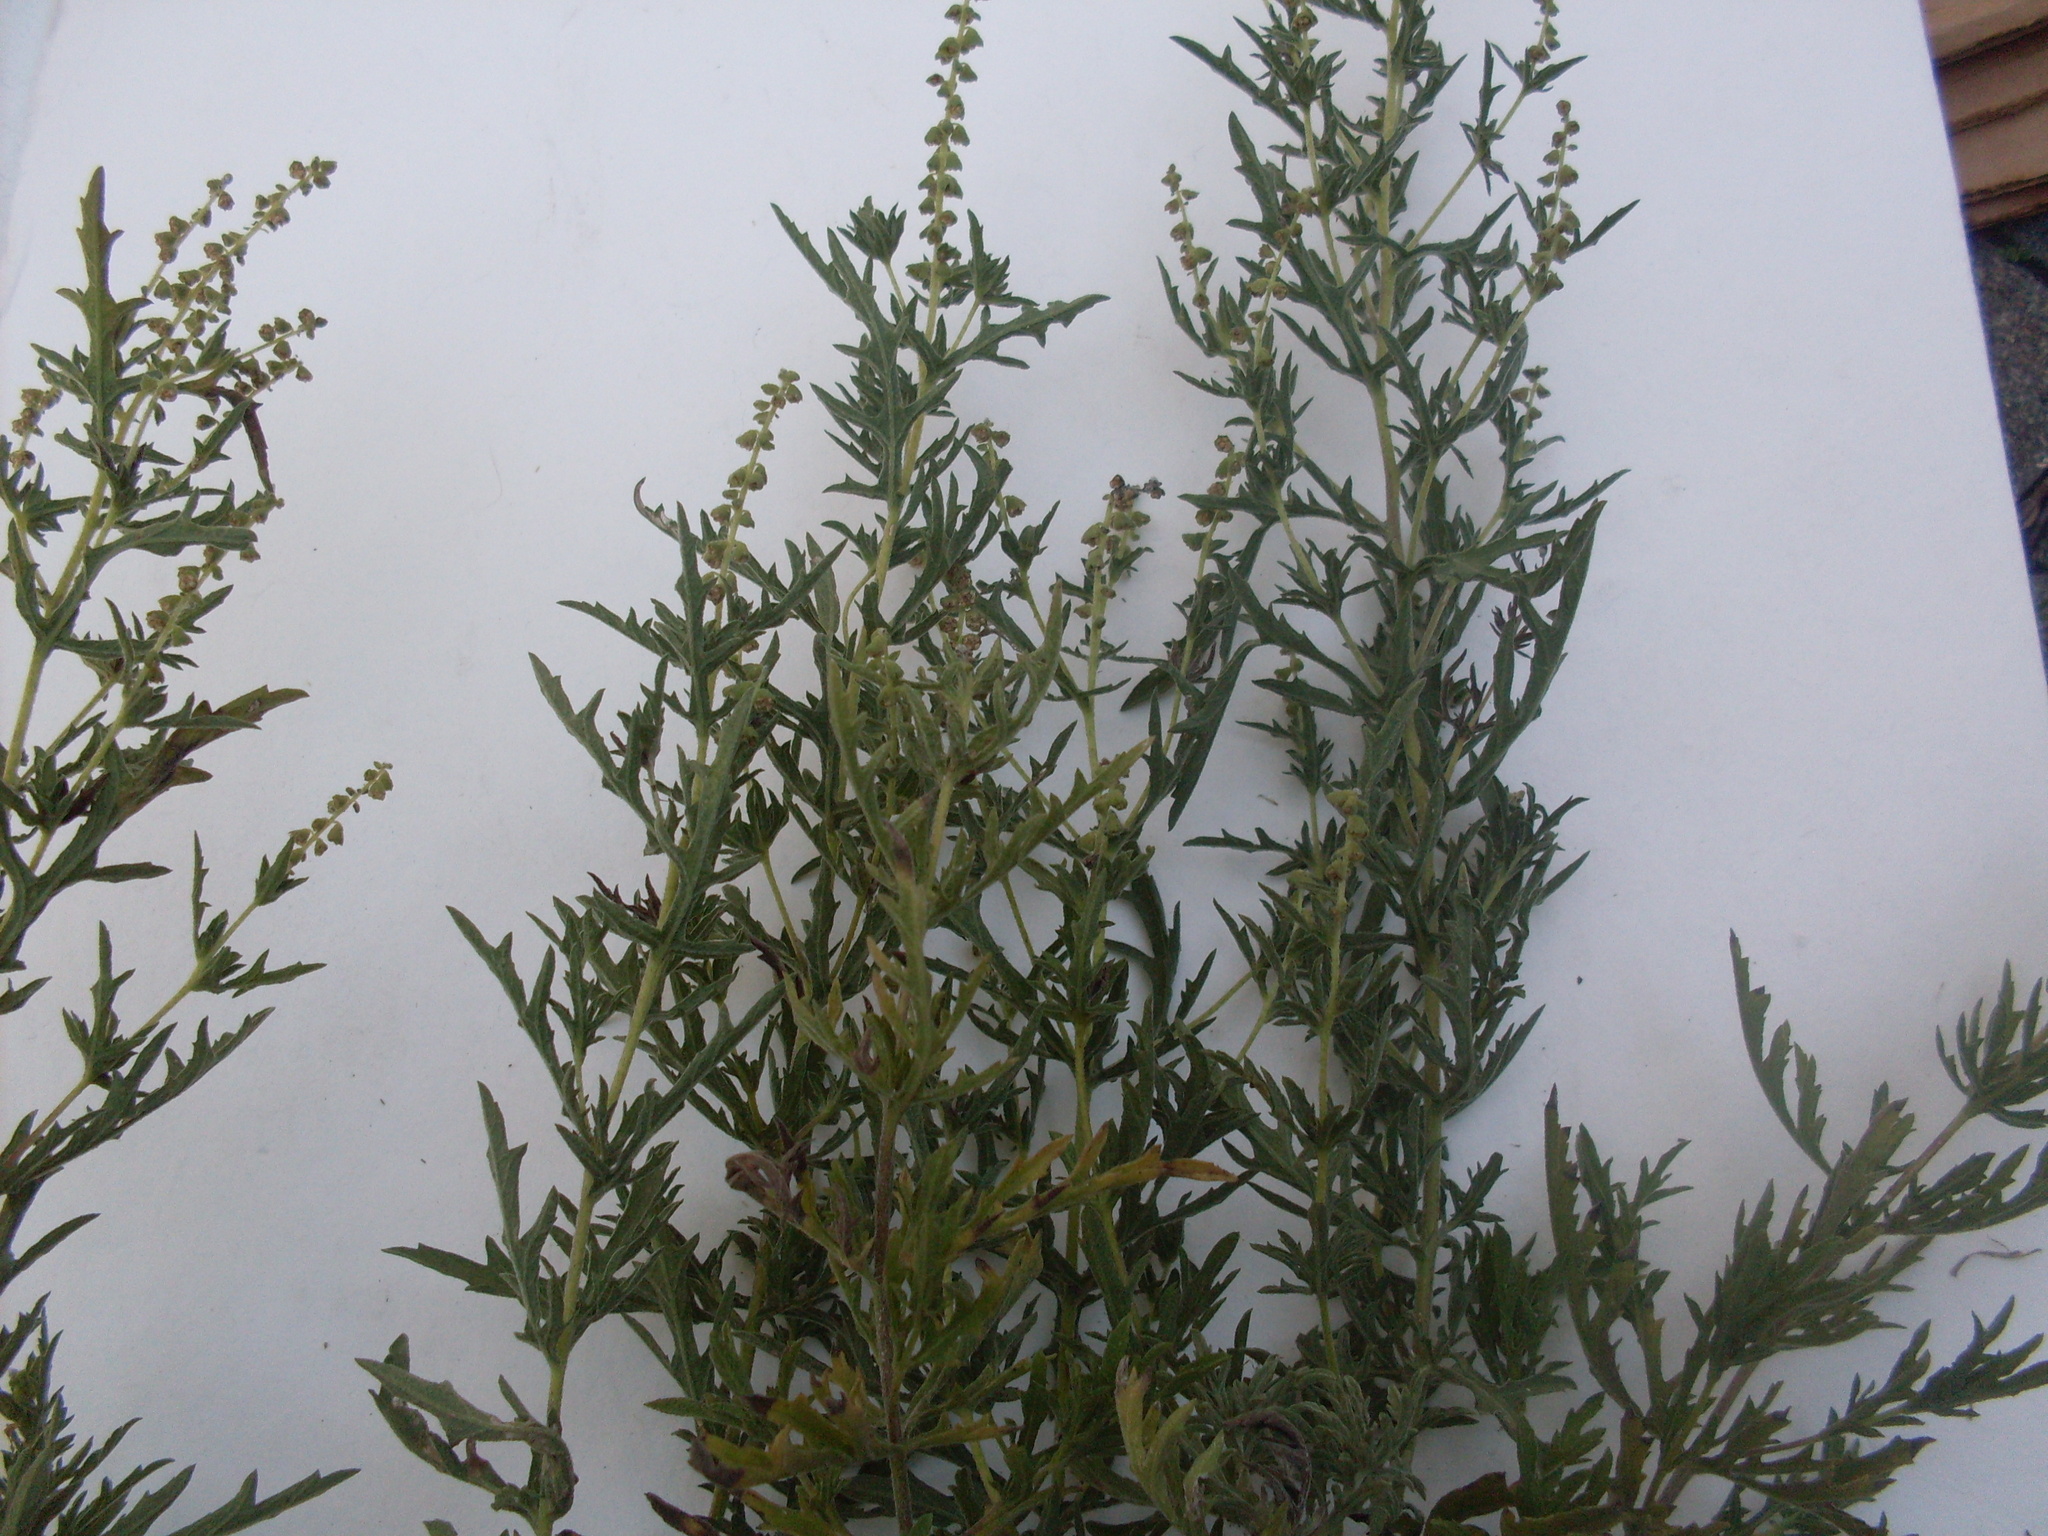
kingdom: Plantae
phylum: Tracheophyta
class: Magnoliopsida
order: Asterales
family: Asteraceae
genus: Ambrosia
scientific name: Ambrosia psilostachya
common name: Perennial ragweed
